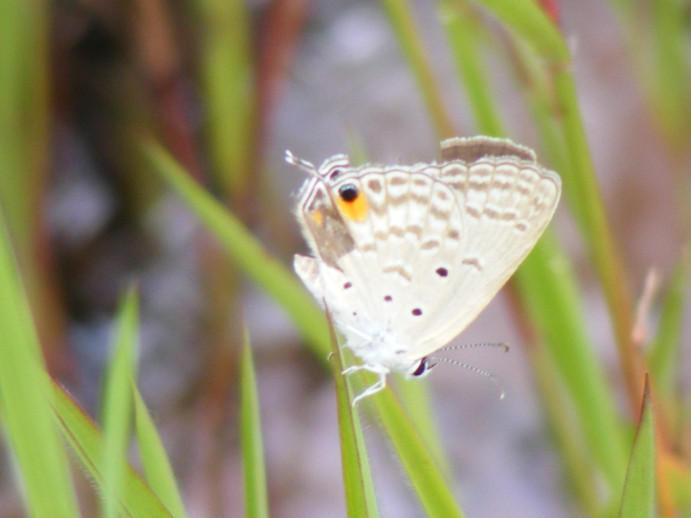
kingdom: Animalia
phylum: Arthropoda
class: Insecta
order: Lepidoptera
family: Lycaenidae
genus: Euchrysops
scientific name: Euchrysops barkeri
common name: Barker's smoky blue
